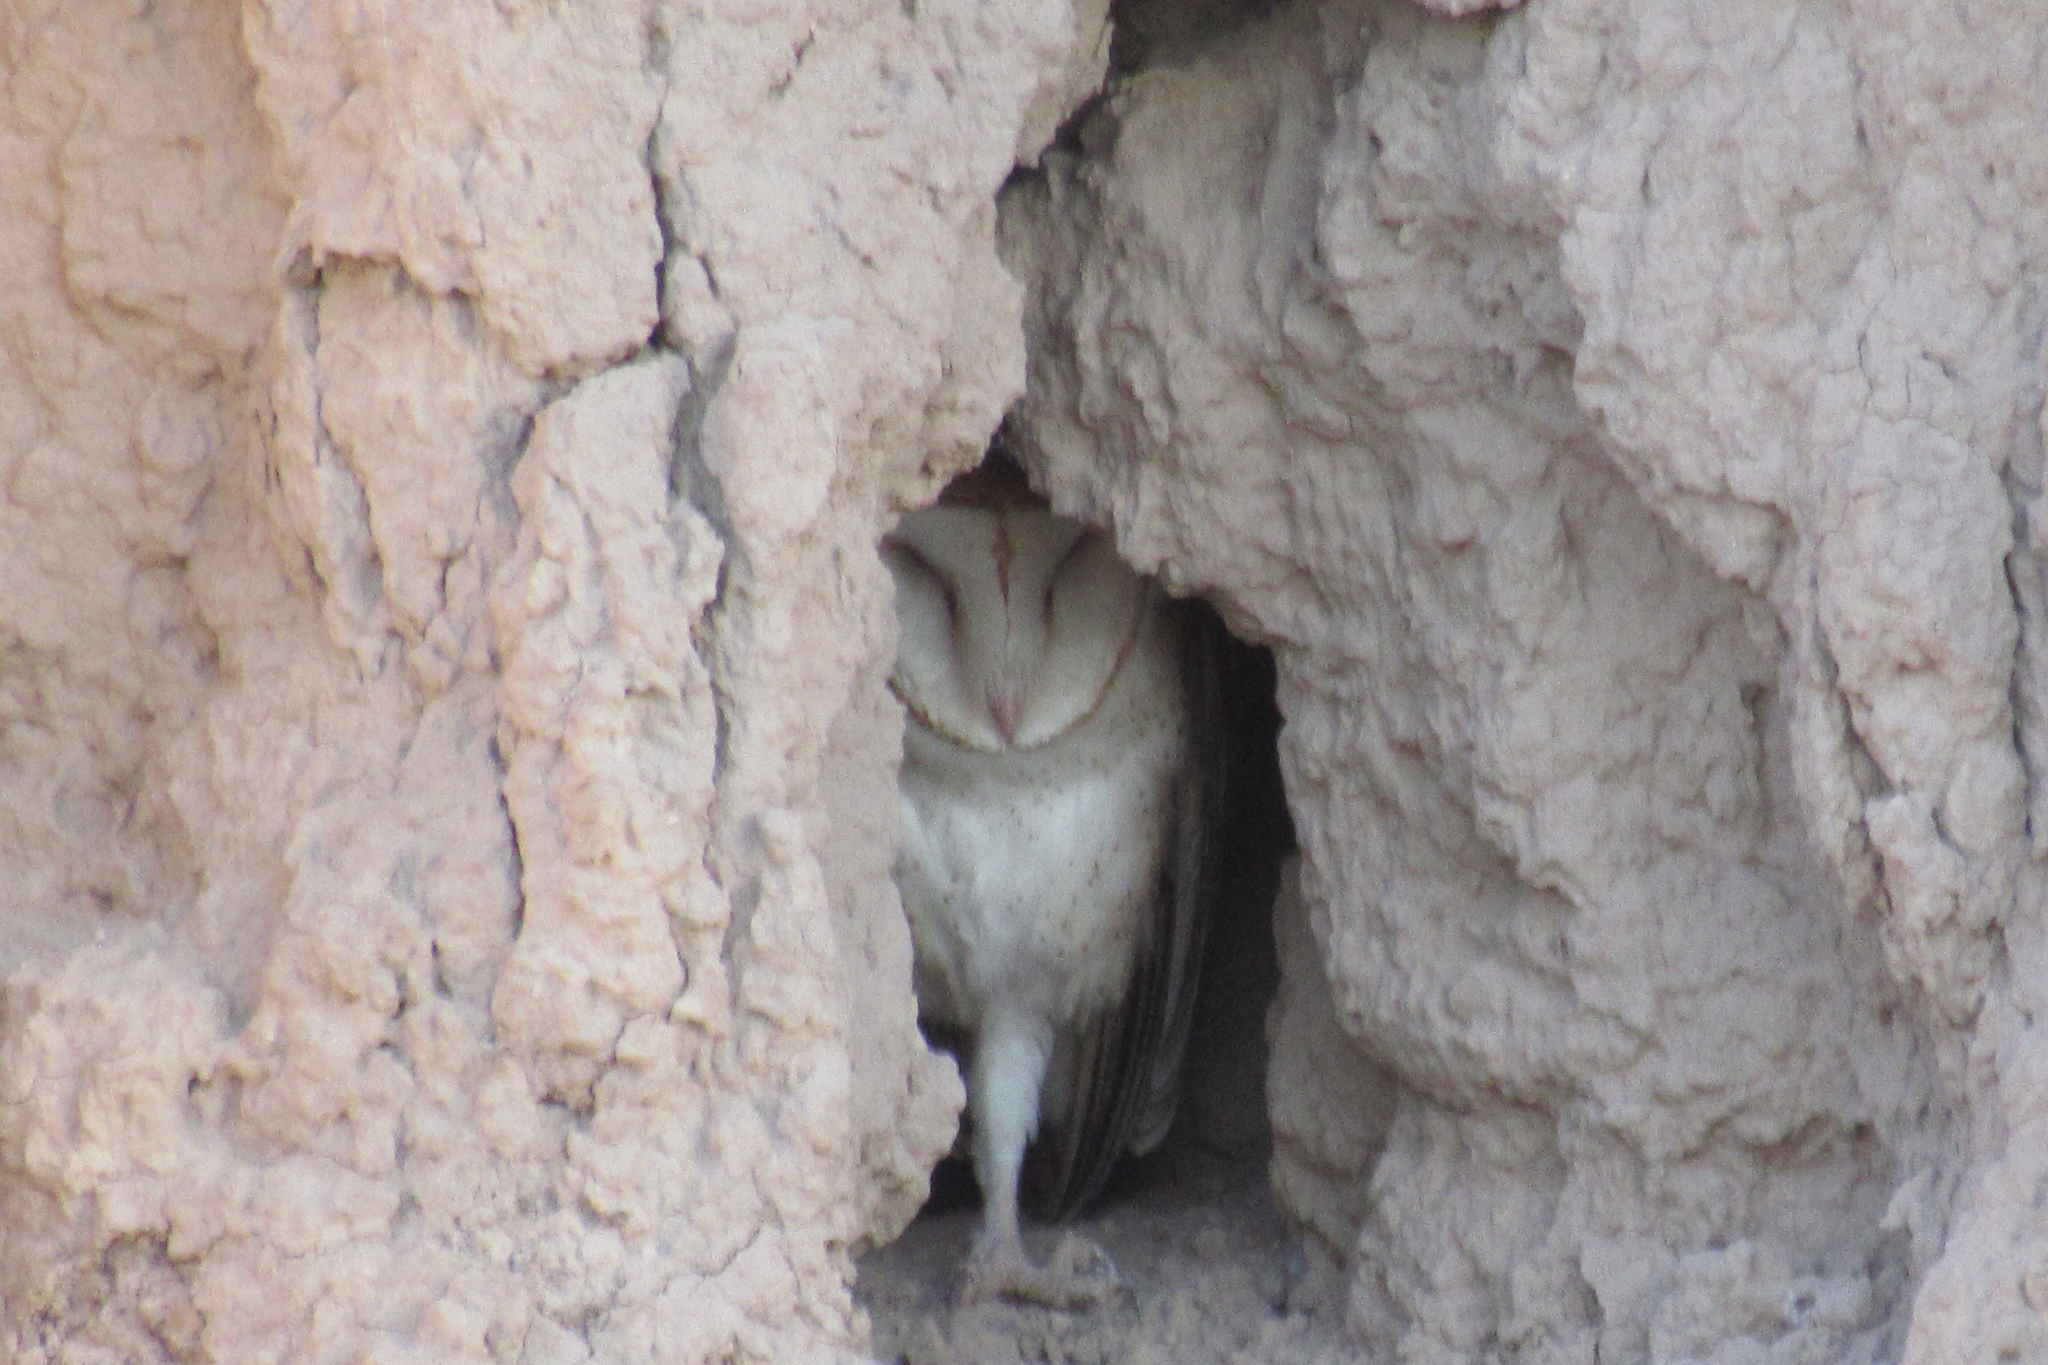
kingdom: Animalia
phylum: Chordata
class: Aves
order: Strigiformes
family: Tytonidae
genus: Tyto
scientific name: Tyto alba
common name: Barn owl
